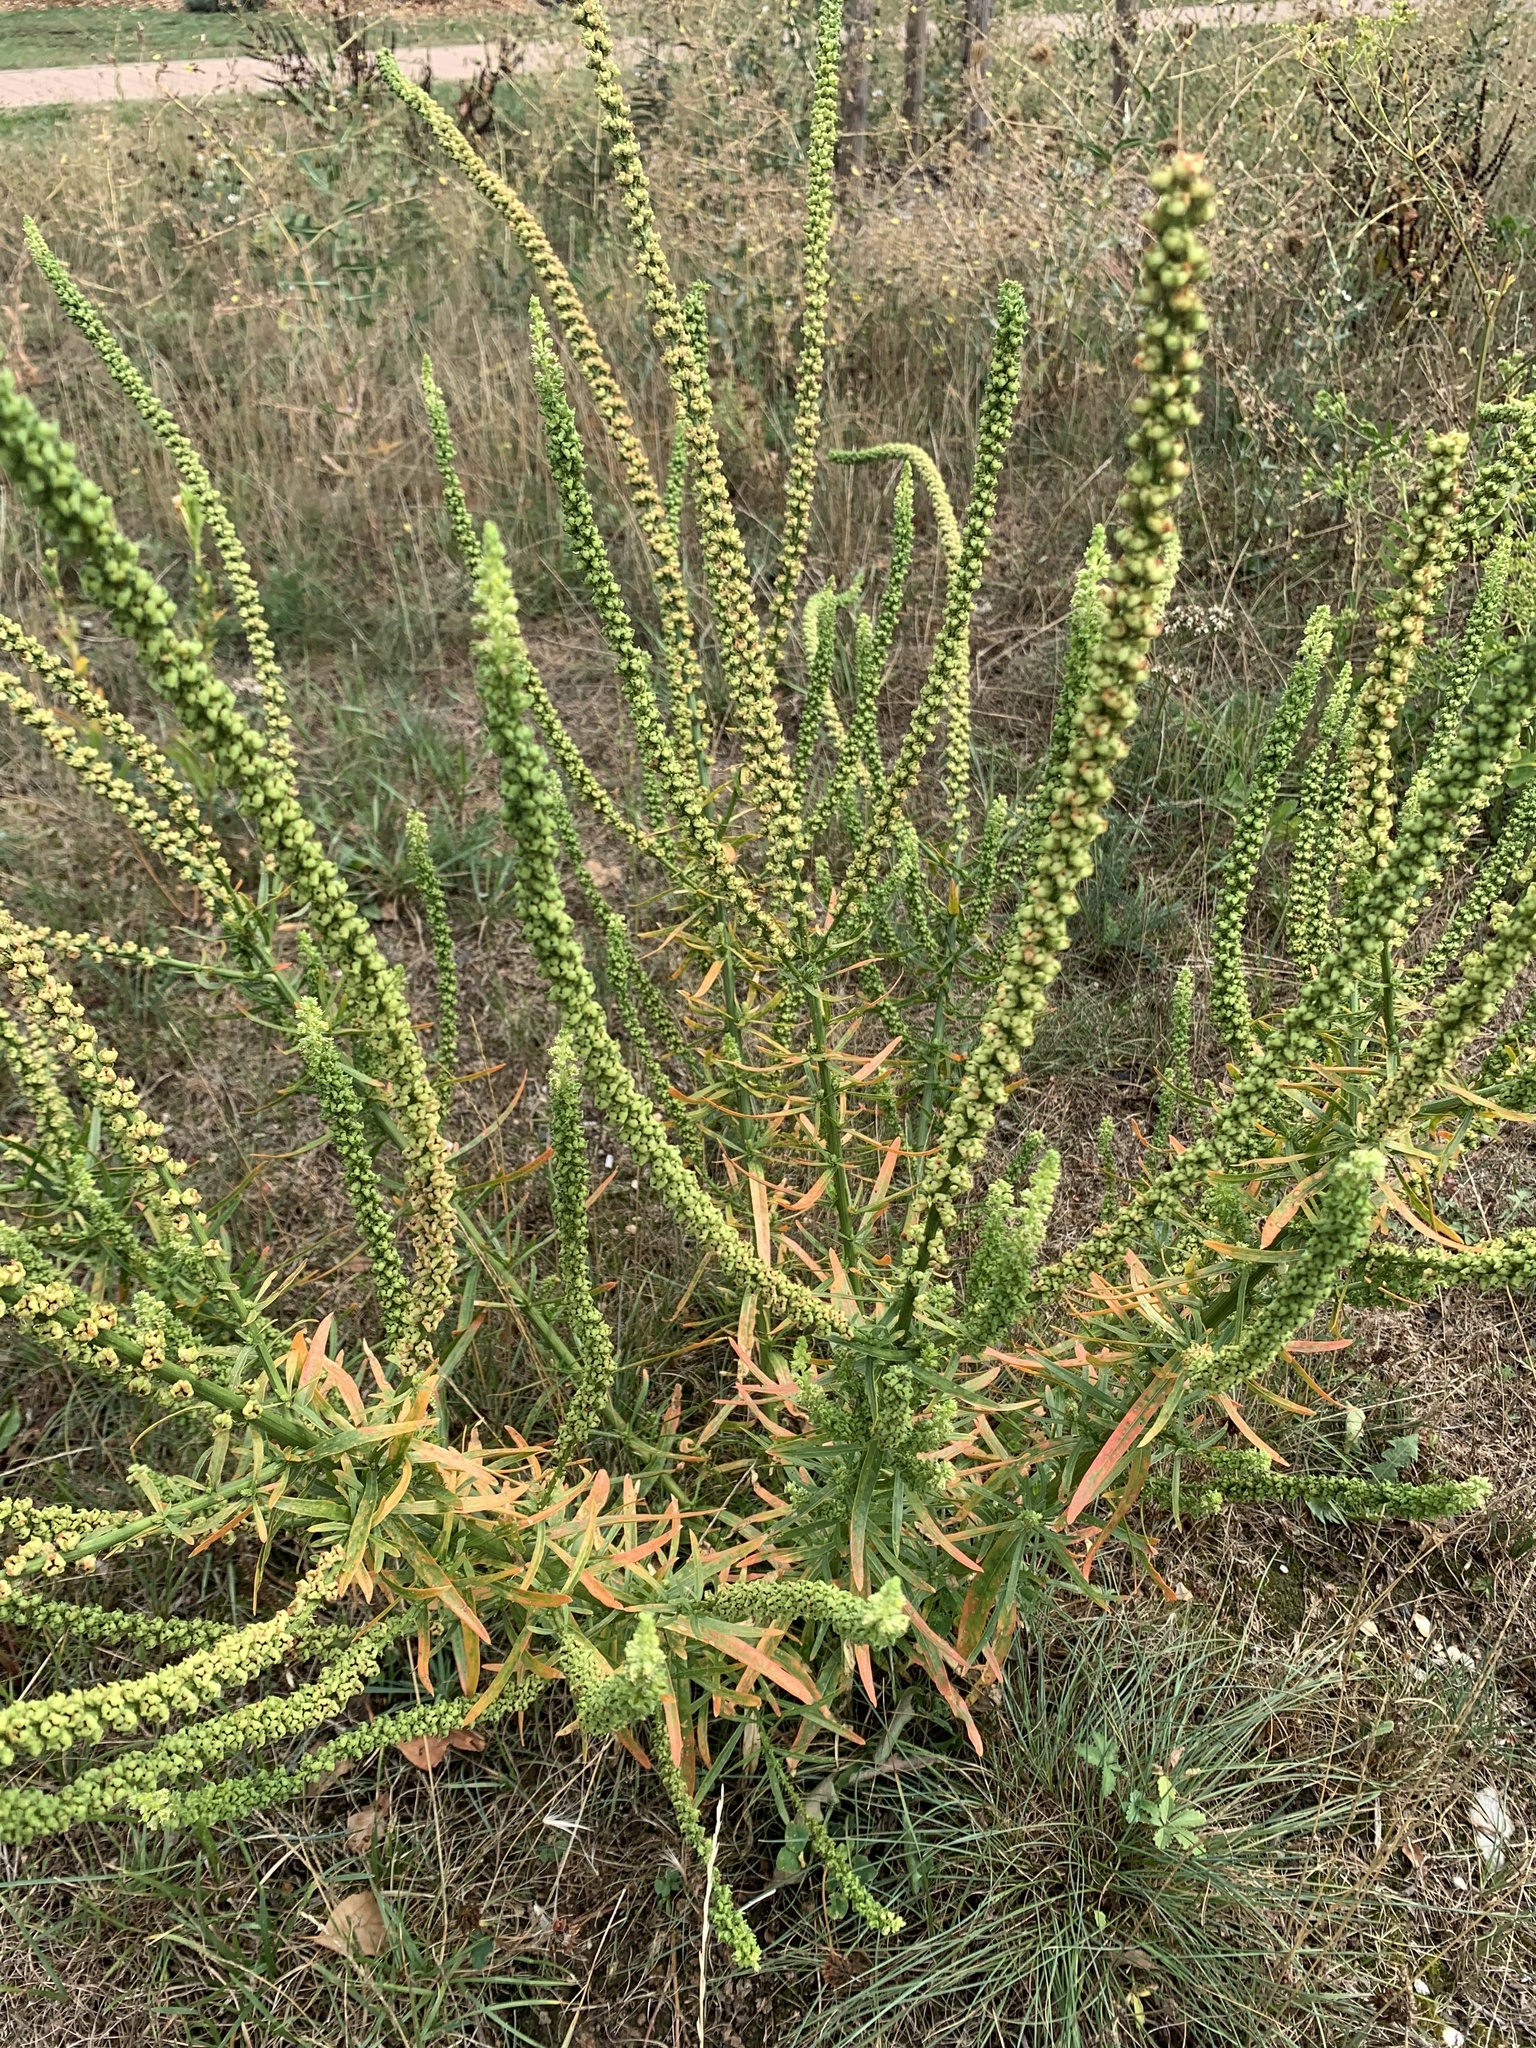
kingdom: Plantae
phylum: Tracheophyta
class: Magnoliopsida
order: Brassicales
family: Resedaceae
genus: Reseda
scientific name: Reseda luteola
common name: Weld
